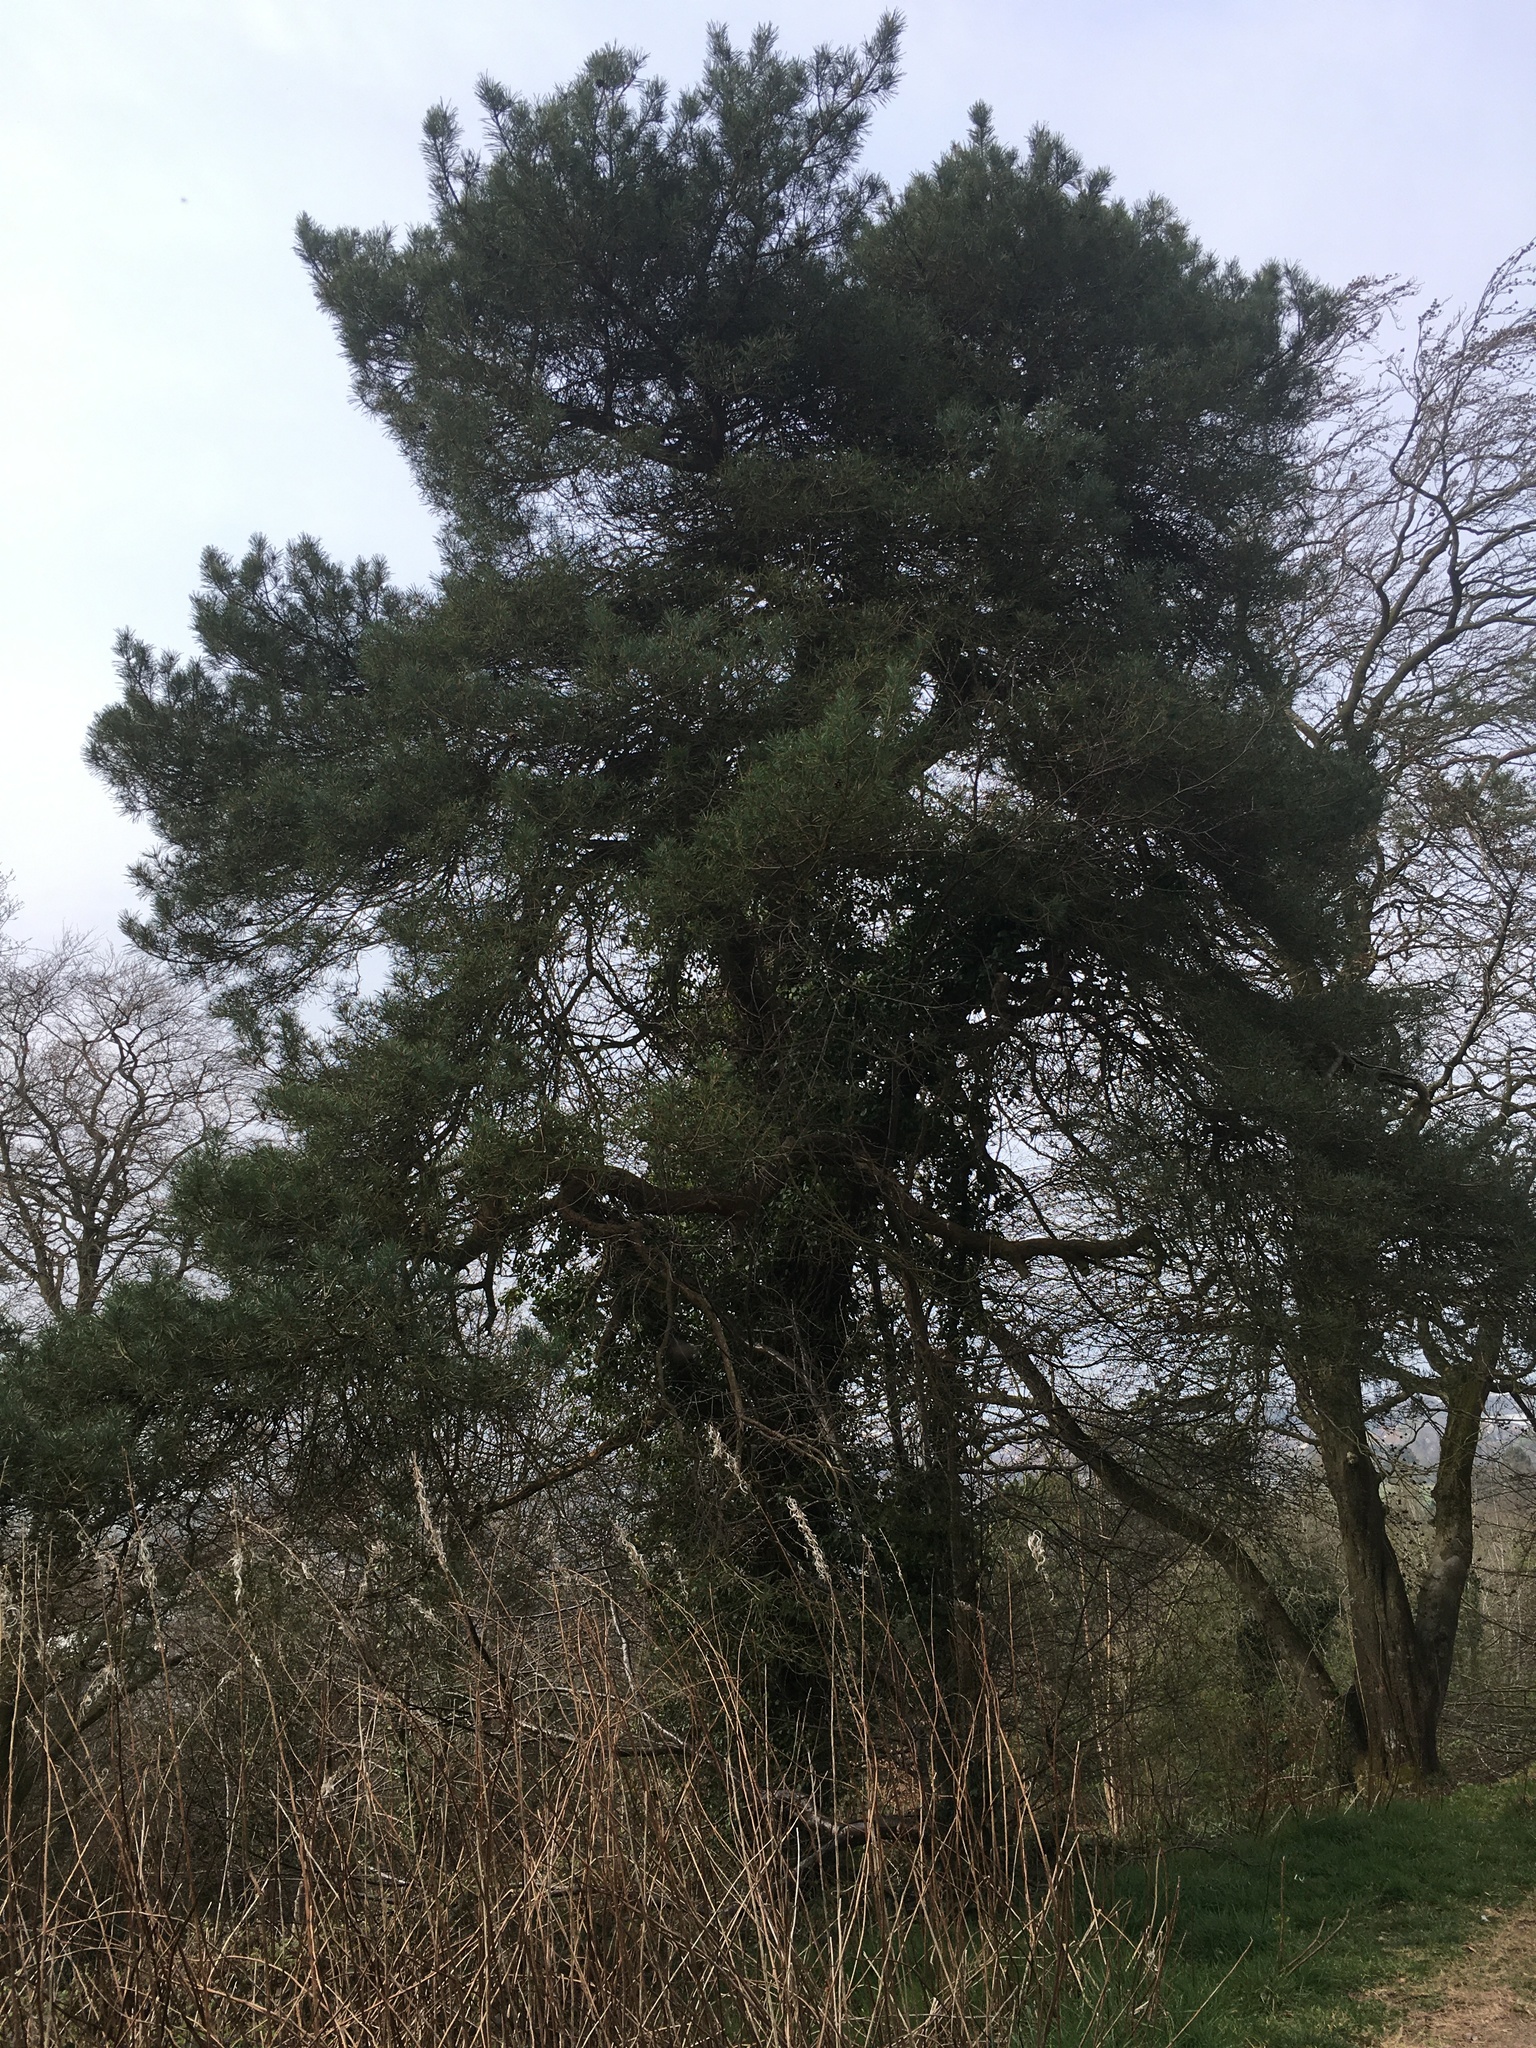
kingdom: Plantae
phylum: Tracheophyta
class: Pinopsida
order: Pinales
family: Pinaceae
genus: Pinus
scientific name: Pinus sylvestris
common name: Scots pine
